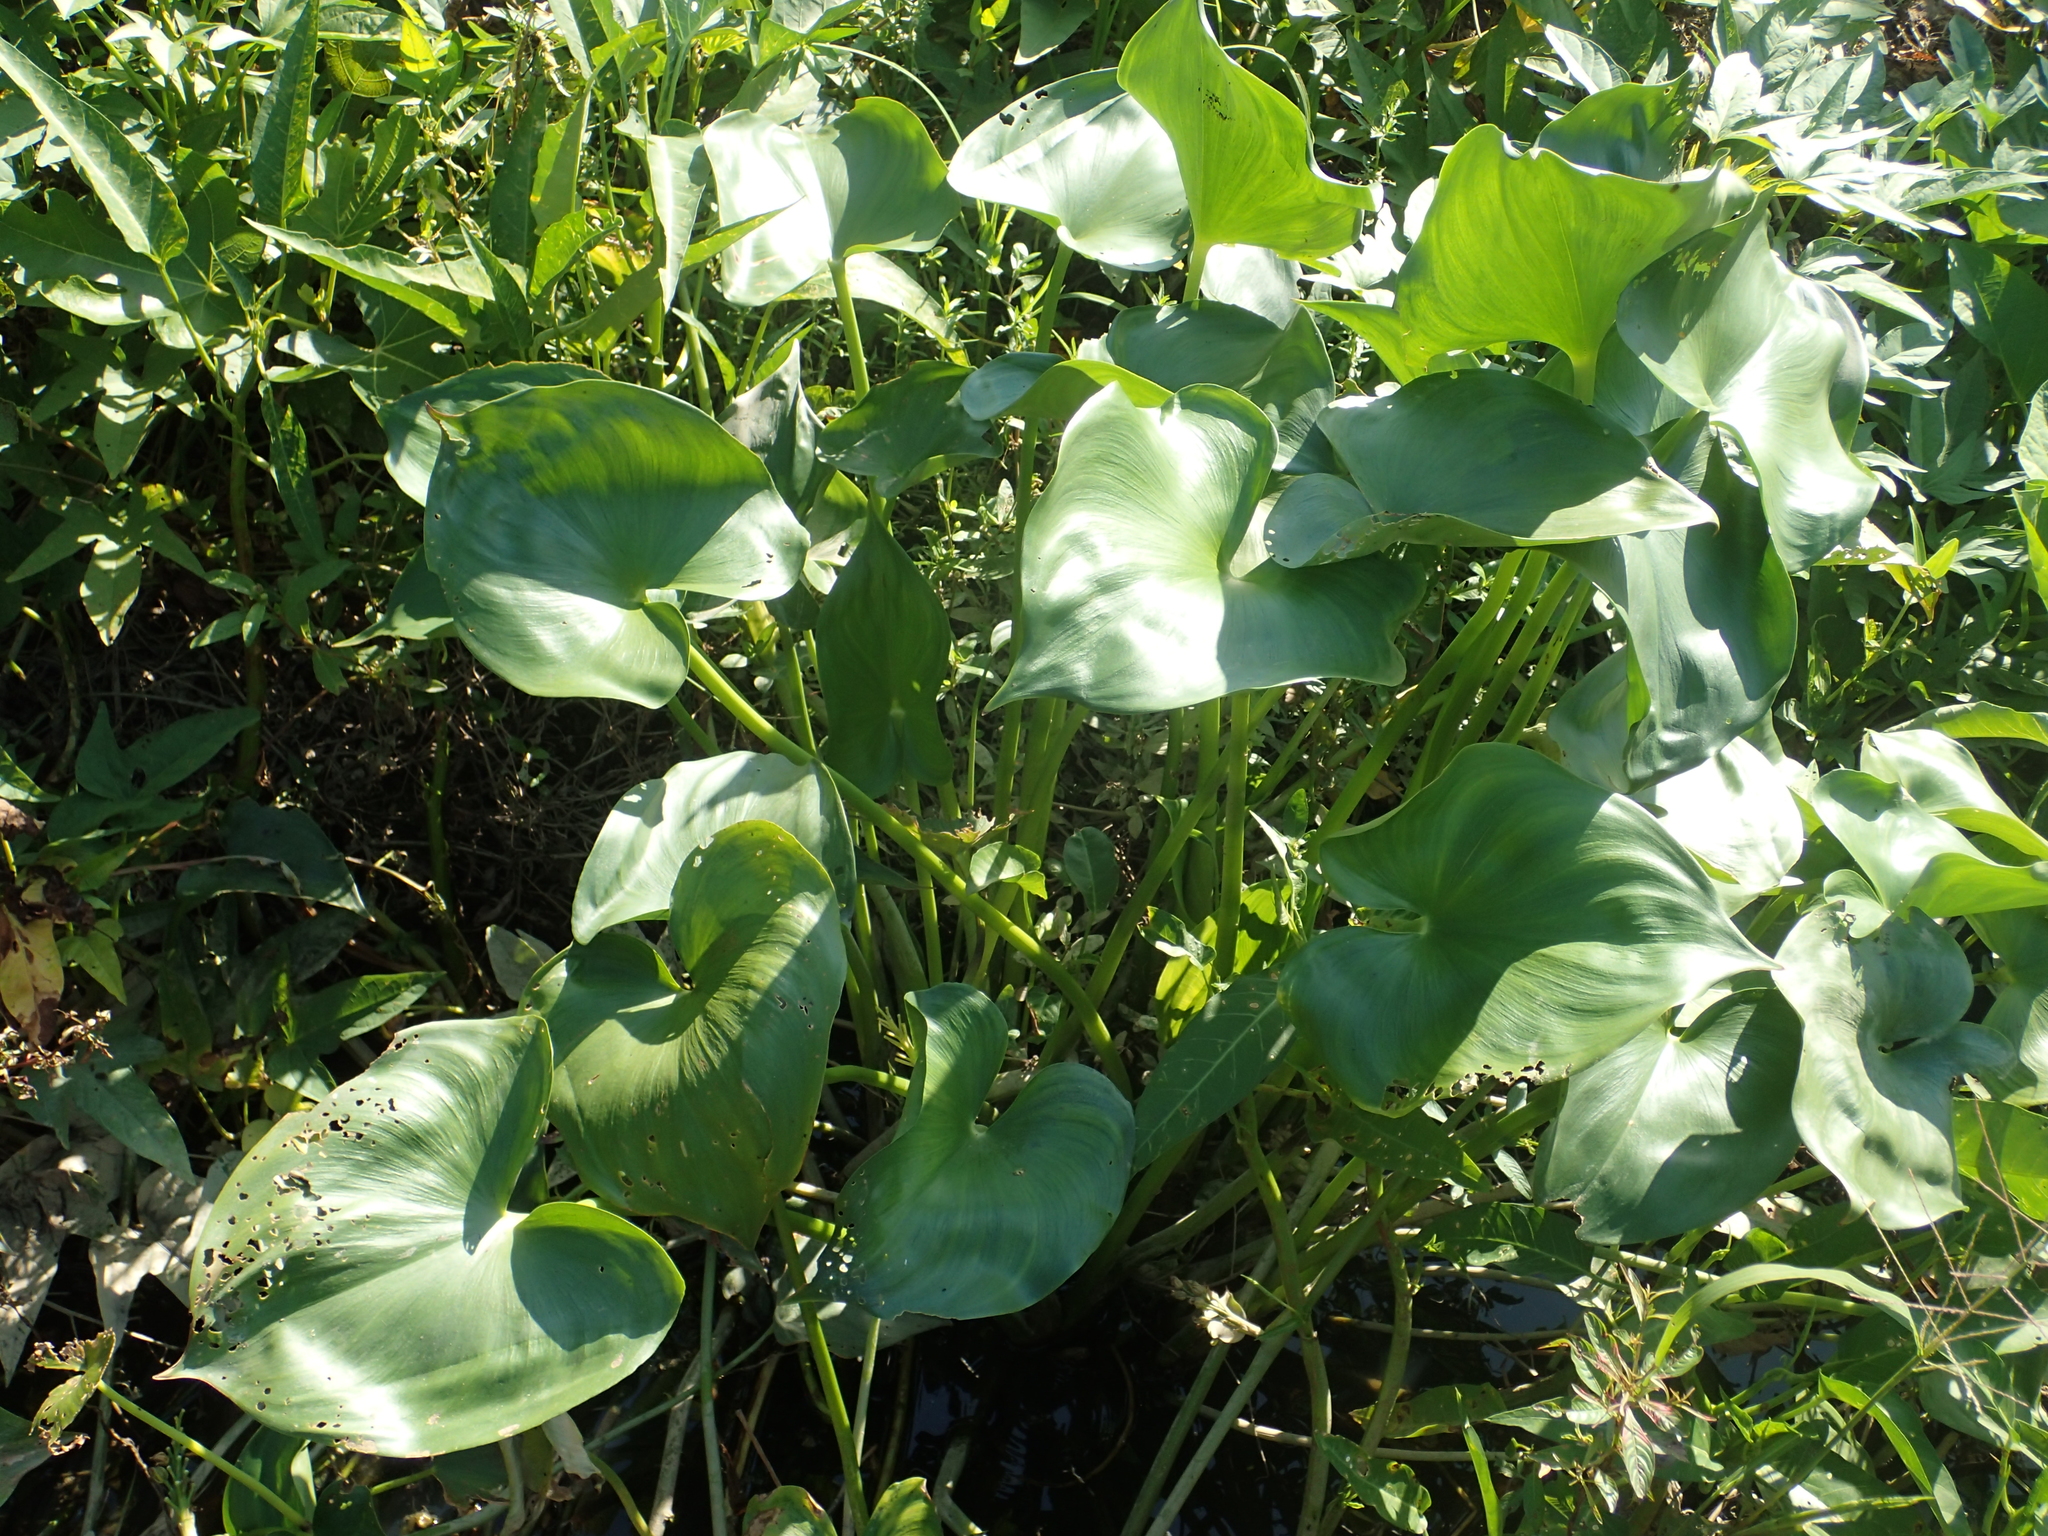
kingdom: Plantae
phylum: Tracheophyta
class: Liliopsida
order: Commelinales
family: Pontederiaceae
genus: Pontederia
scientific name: Pontederia vaginalis
